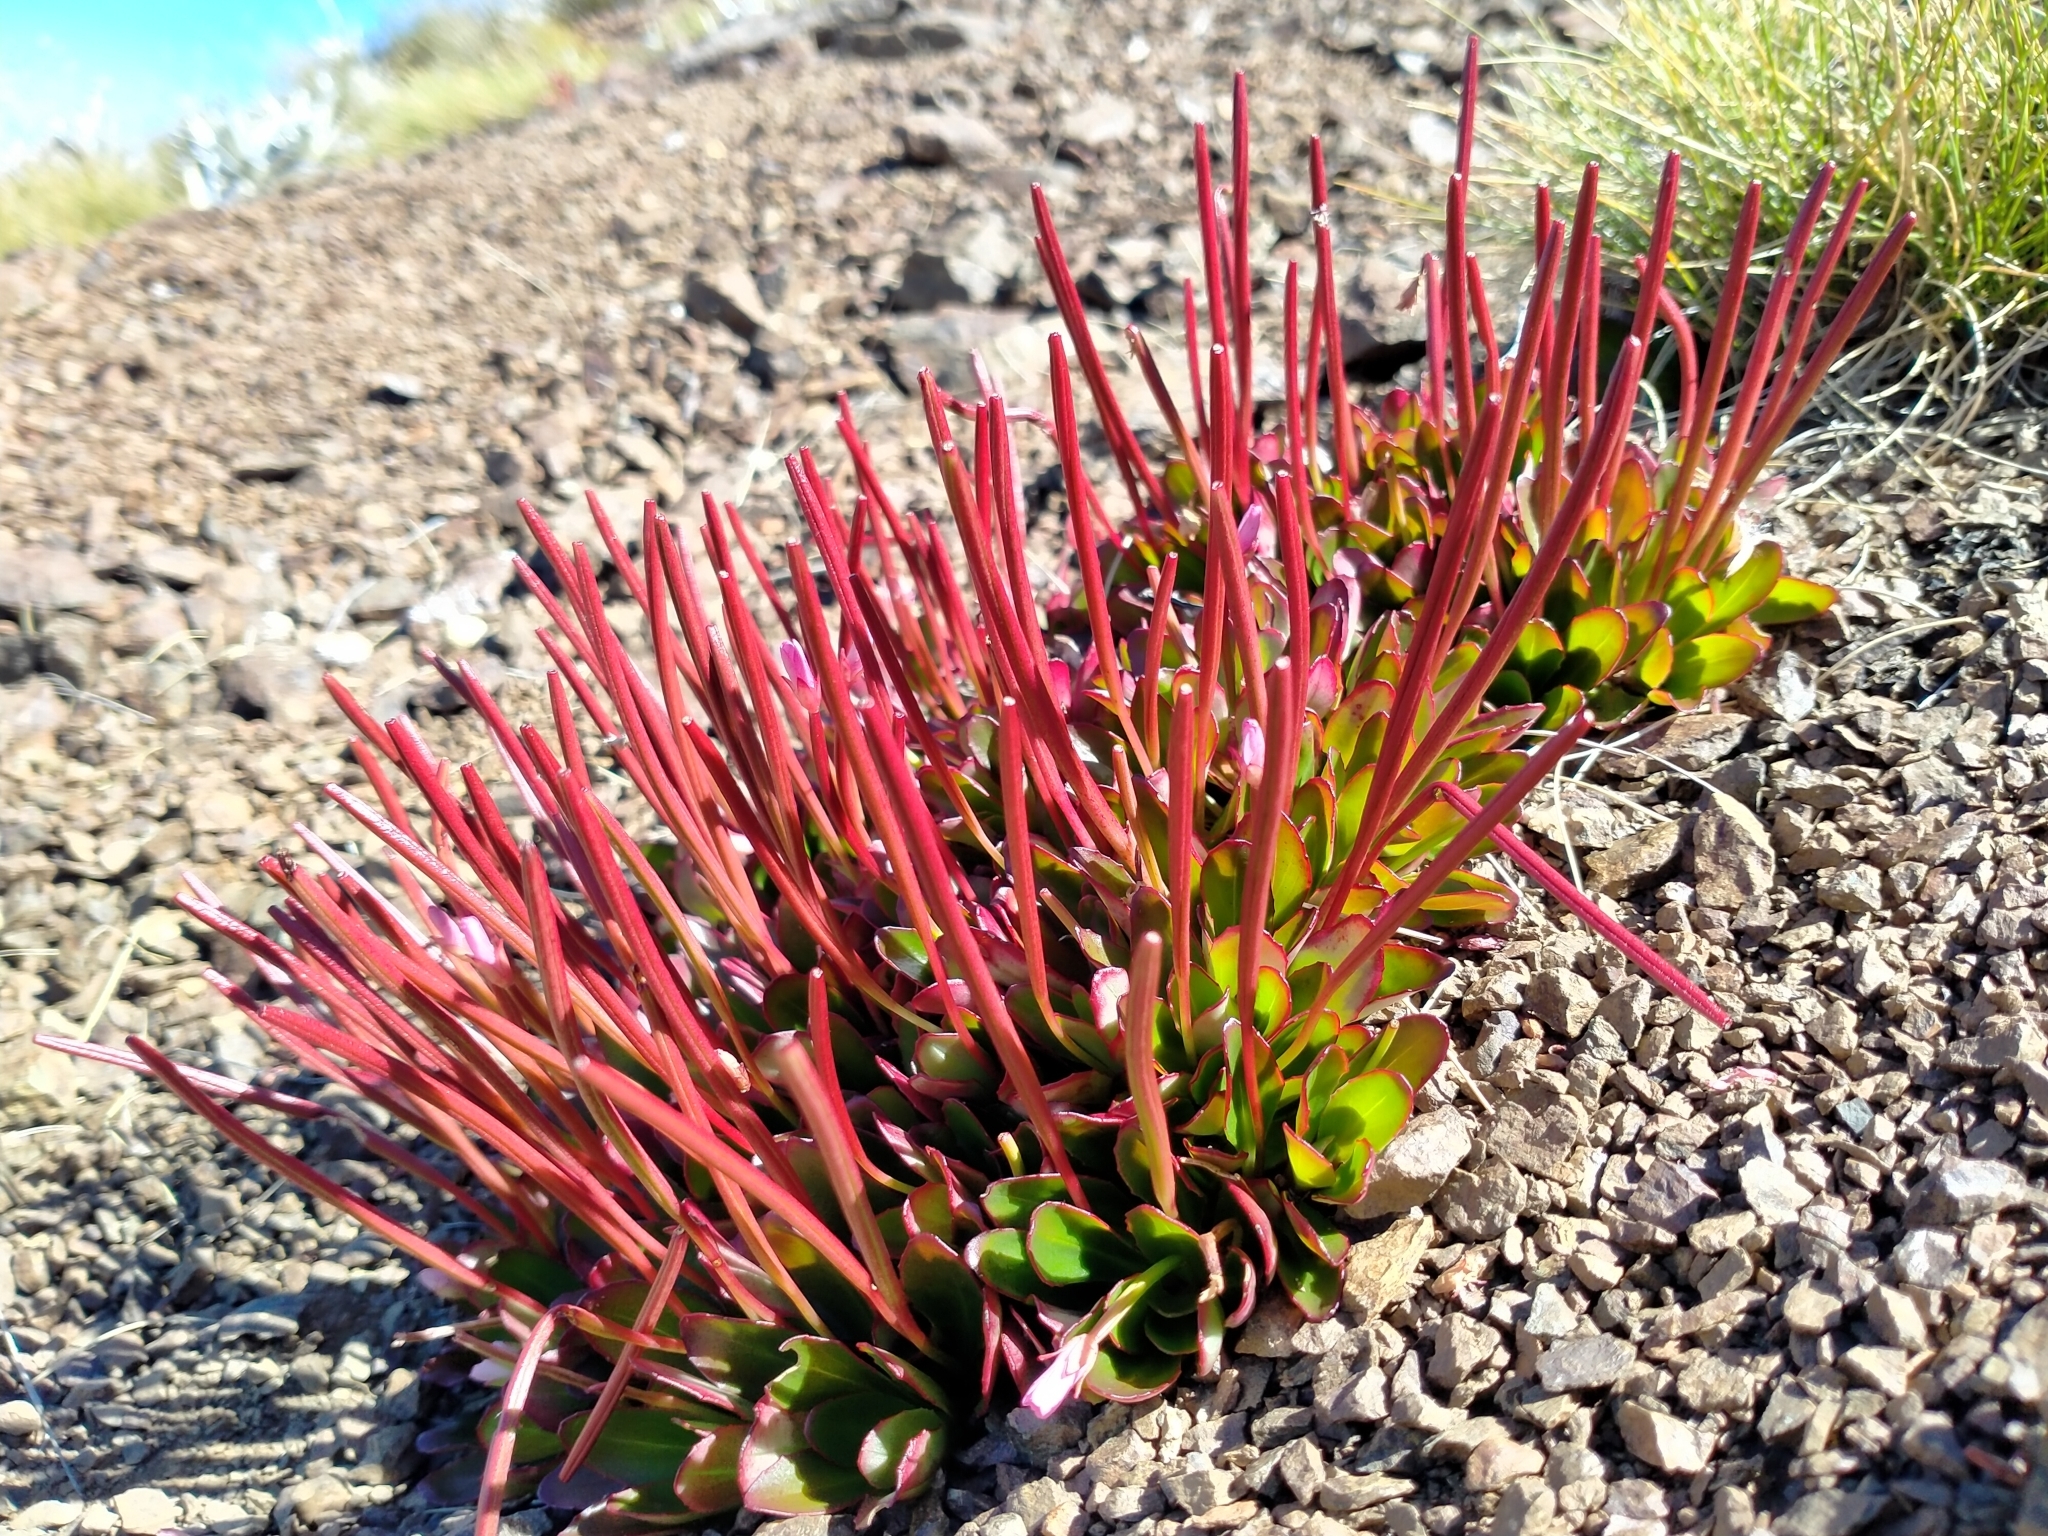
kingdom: Plantae
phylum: Tracheophyta
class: Magnoliopsida
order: Myrtales
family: Onagraceae
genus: Epilobium
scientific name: Epilobium crassum
